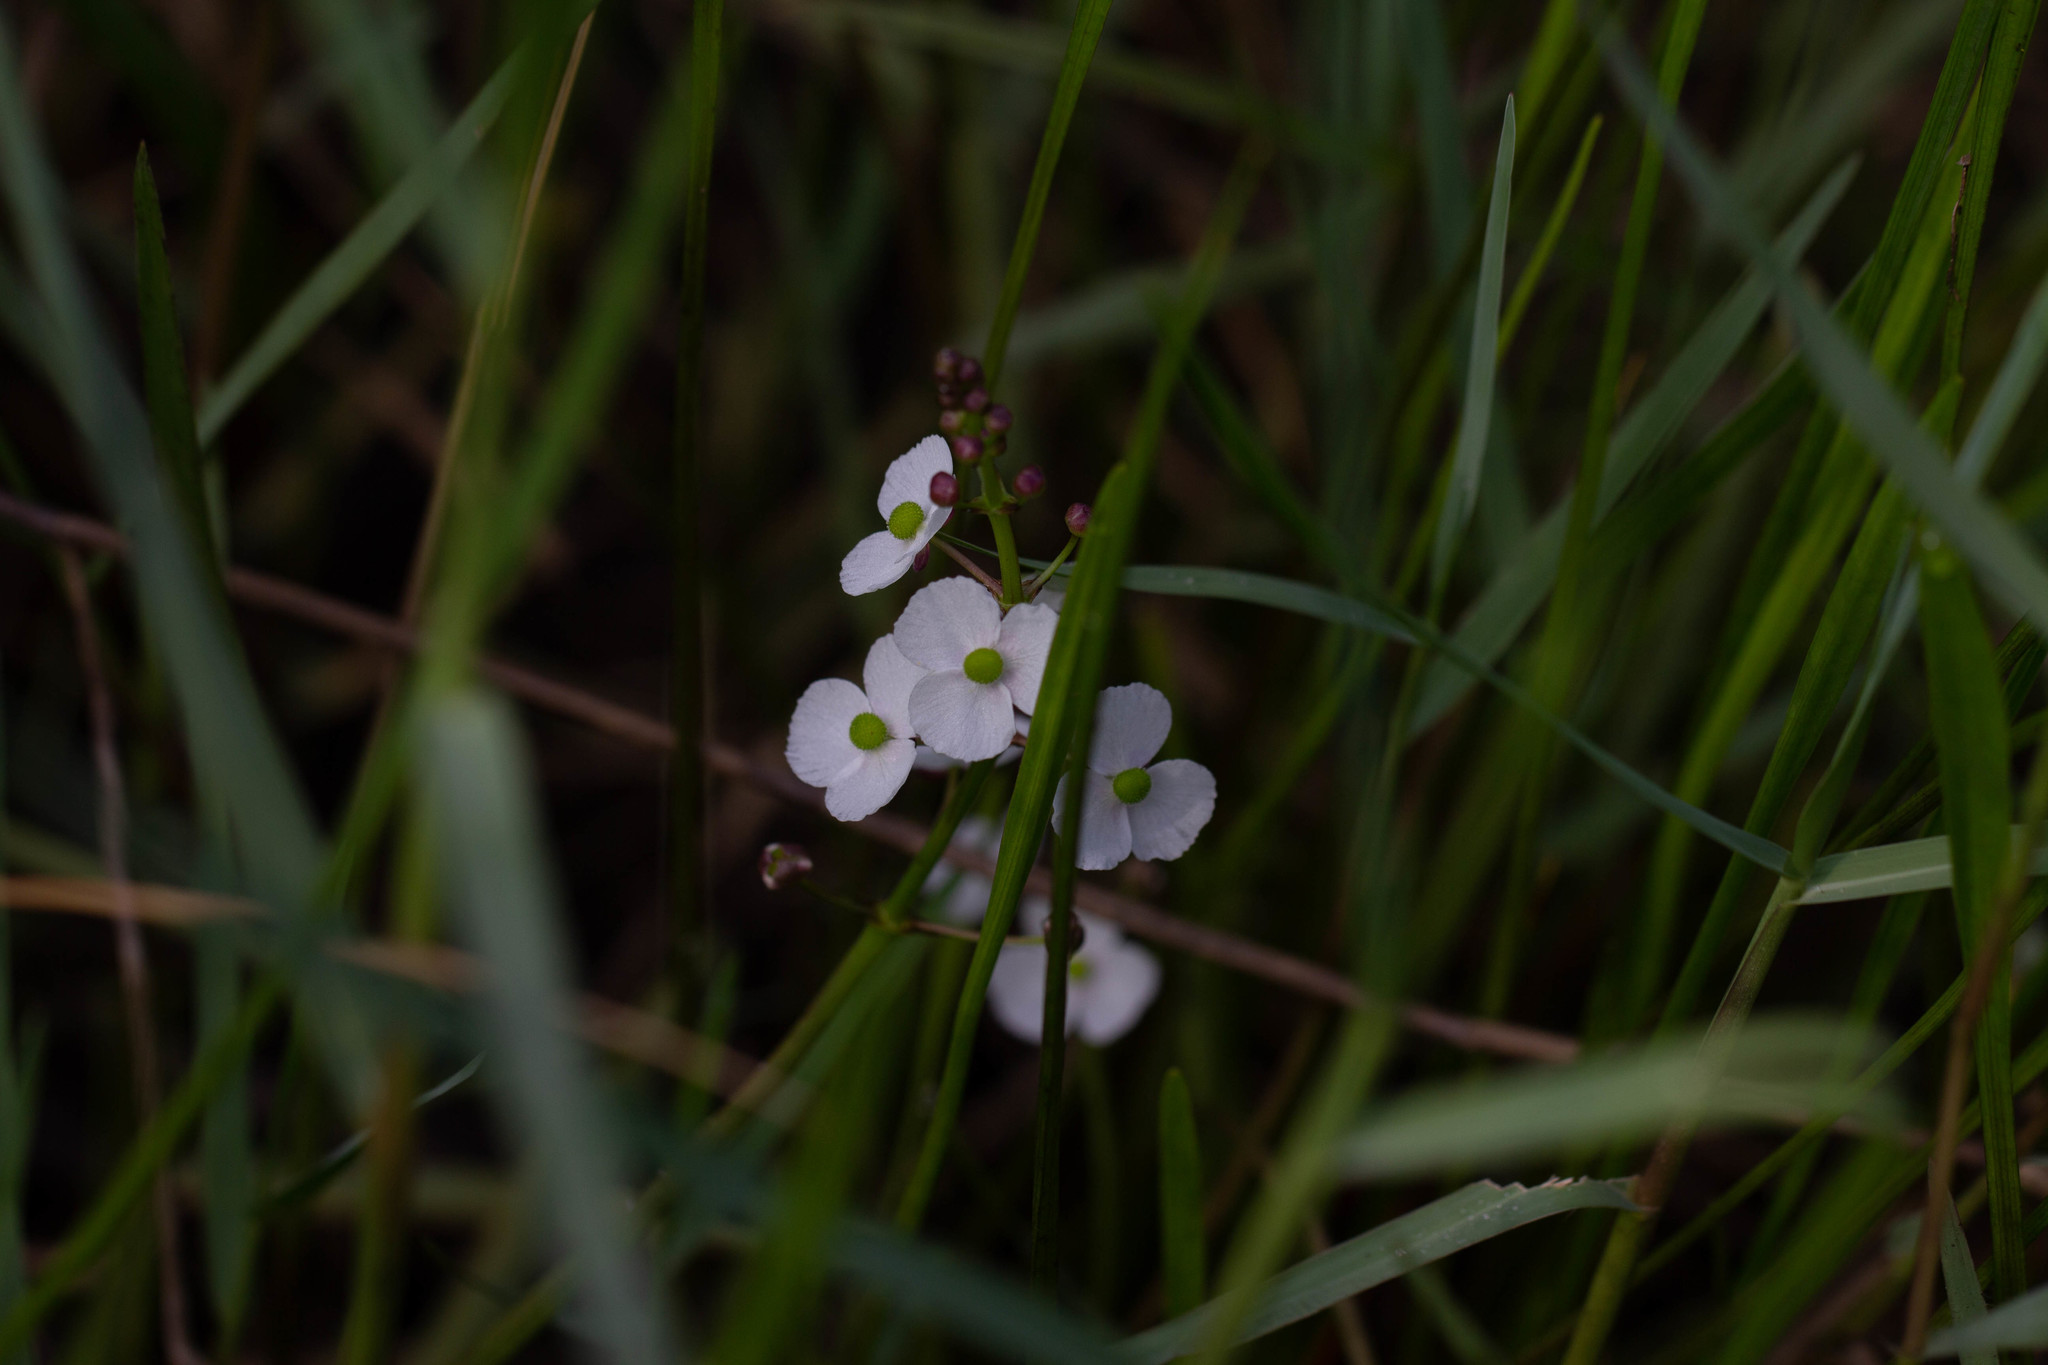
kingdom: Plantae
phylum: Tracheophyta
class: Liliopsida
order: Alismatales
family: Alismataceae
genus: Sagittaria
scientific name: Sagittaria graminea
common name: Grass-leaved arrowhead
